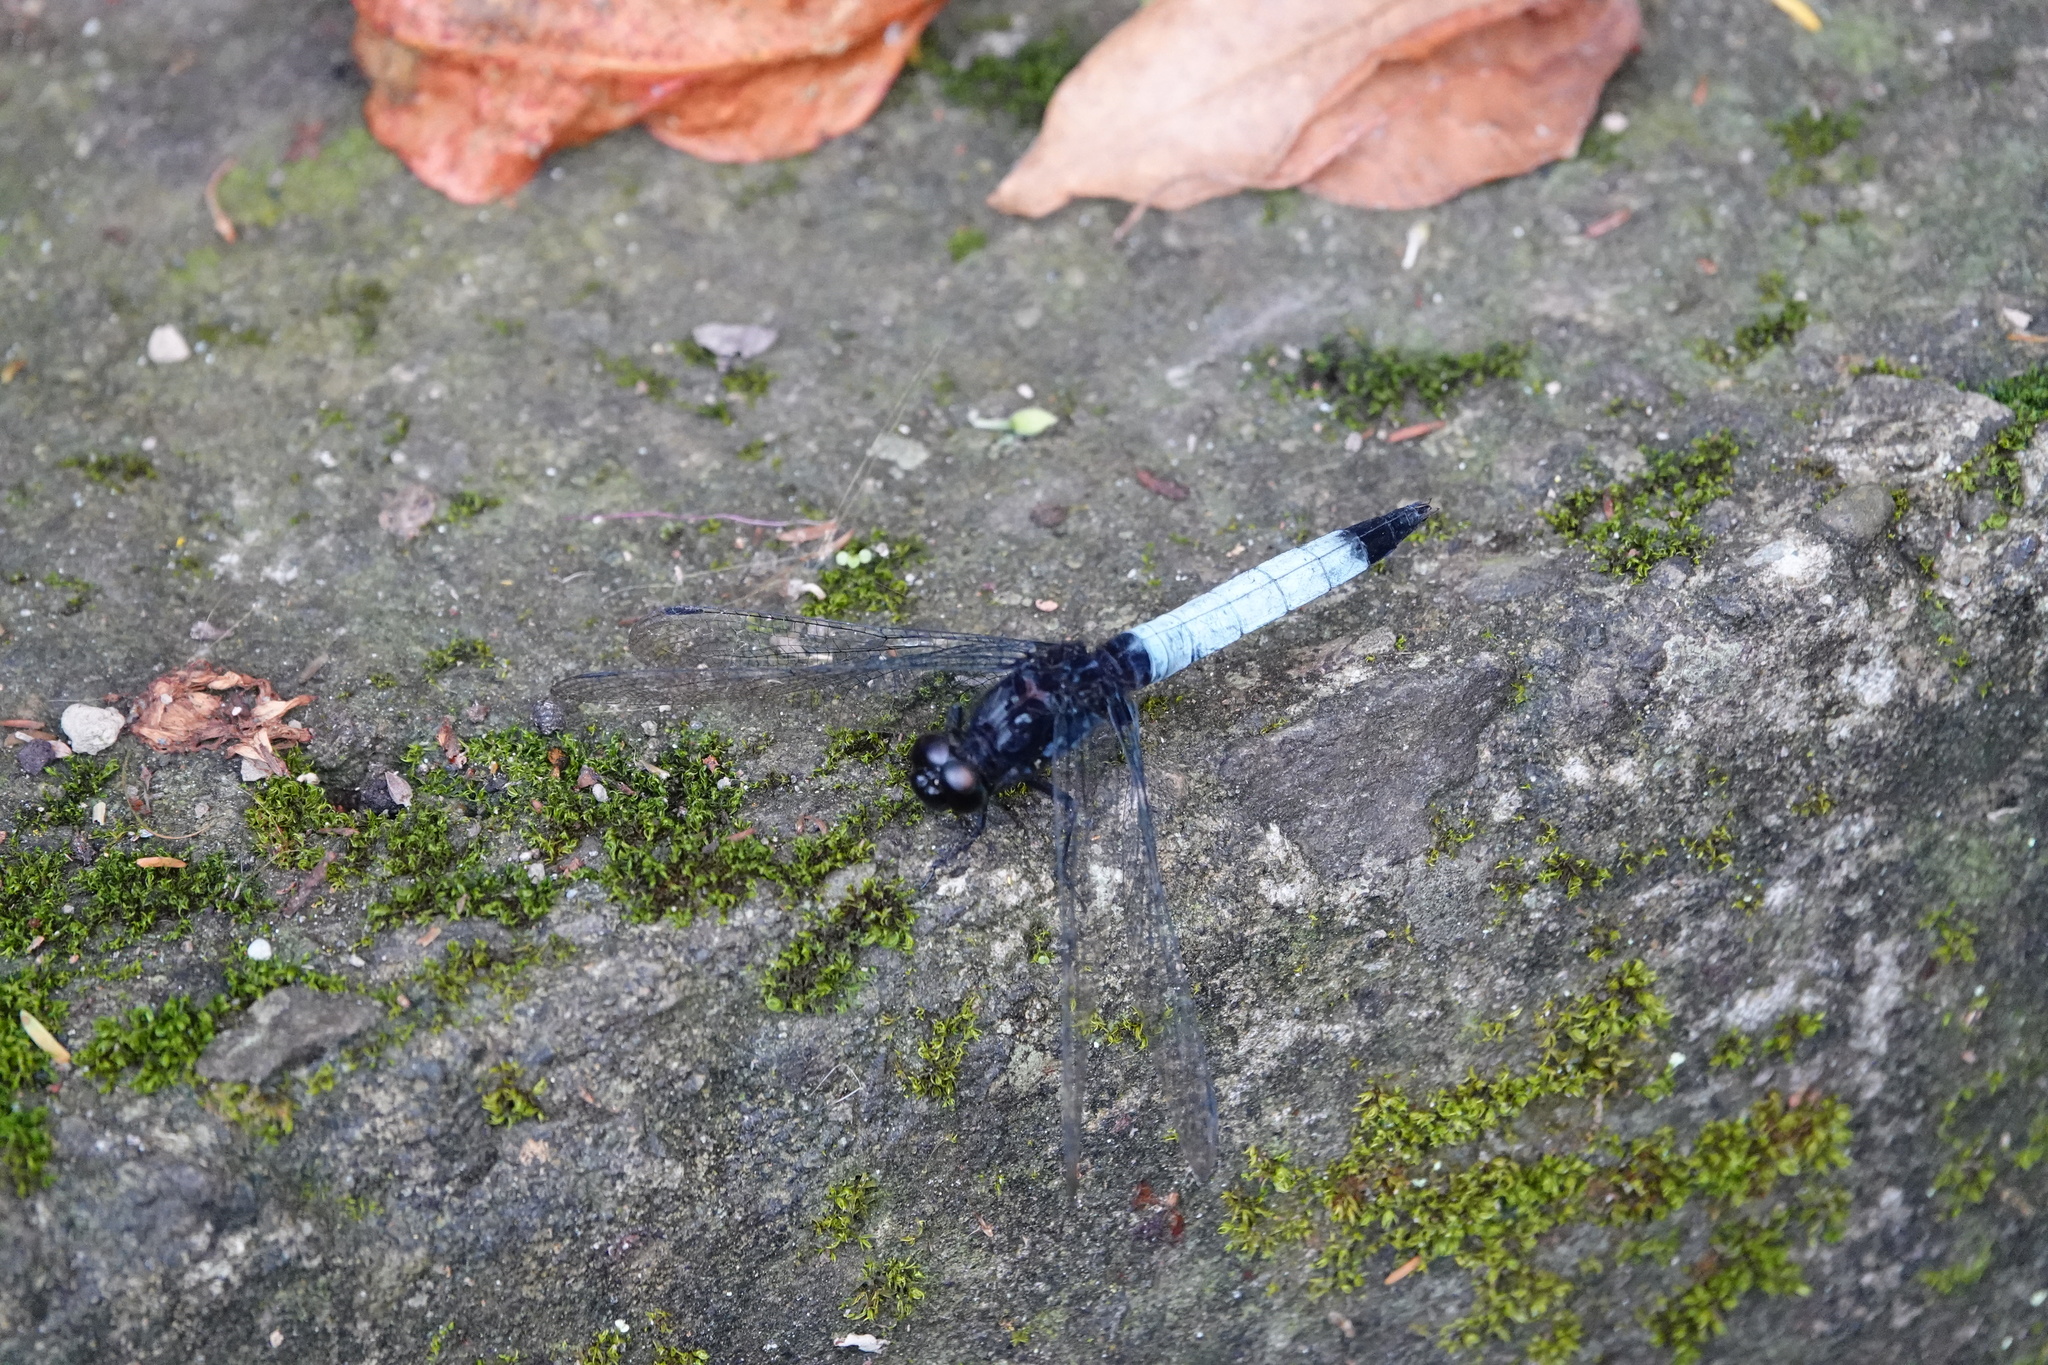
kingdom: Animalia
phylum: Arthropoda
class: Insecta
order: Odonata
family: Libellulidae
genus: Orthetrum
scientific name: Orthetrum triangulare
